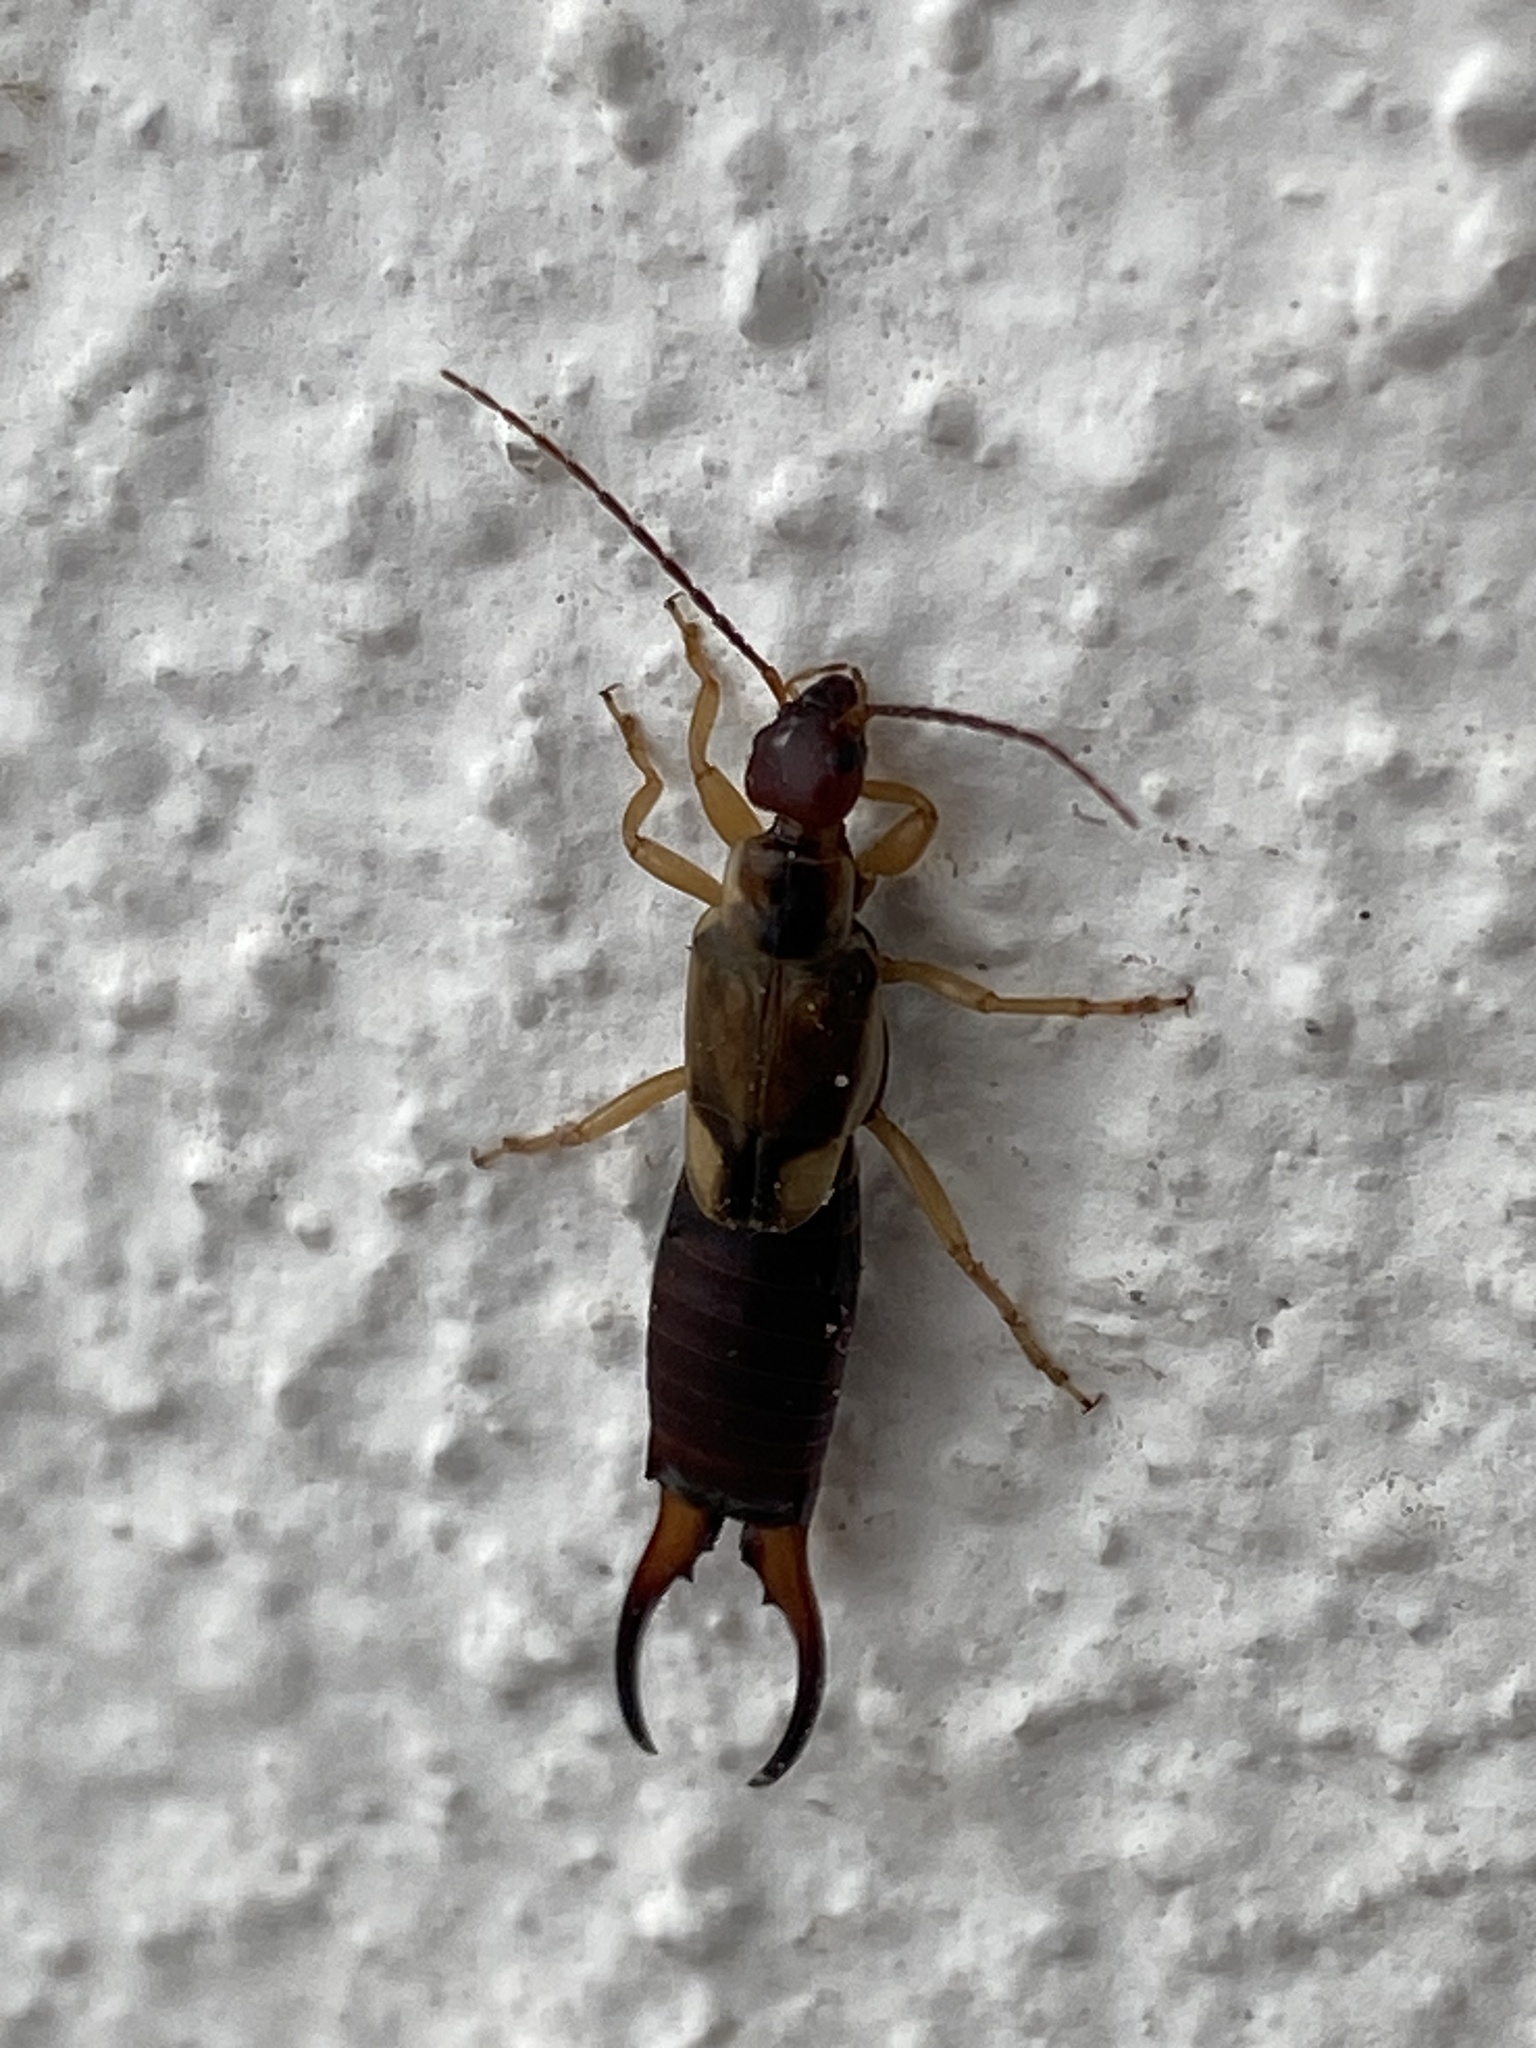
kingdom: Animalia
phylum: Arthropoda
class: Insecta
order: Dermaptera
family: Forficulidae
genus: Forficula
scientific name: Forficula mediterranea
